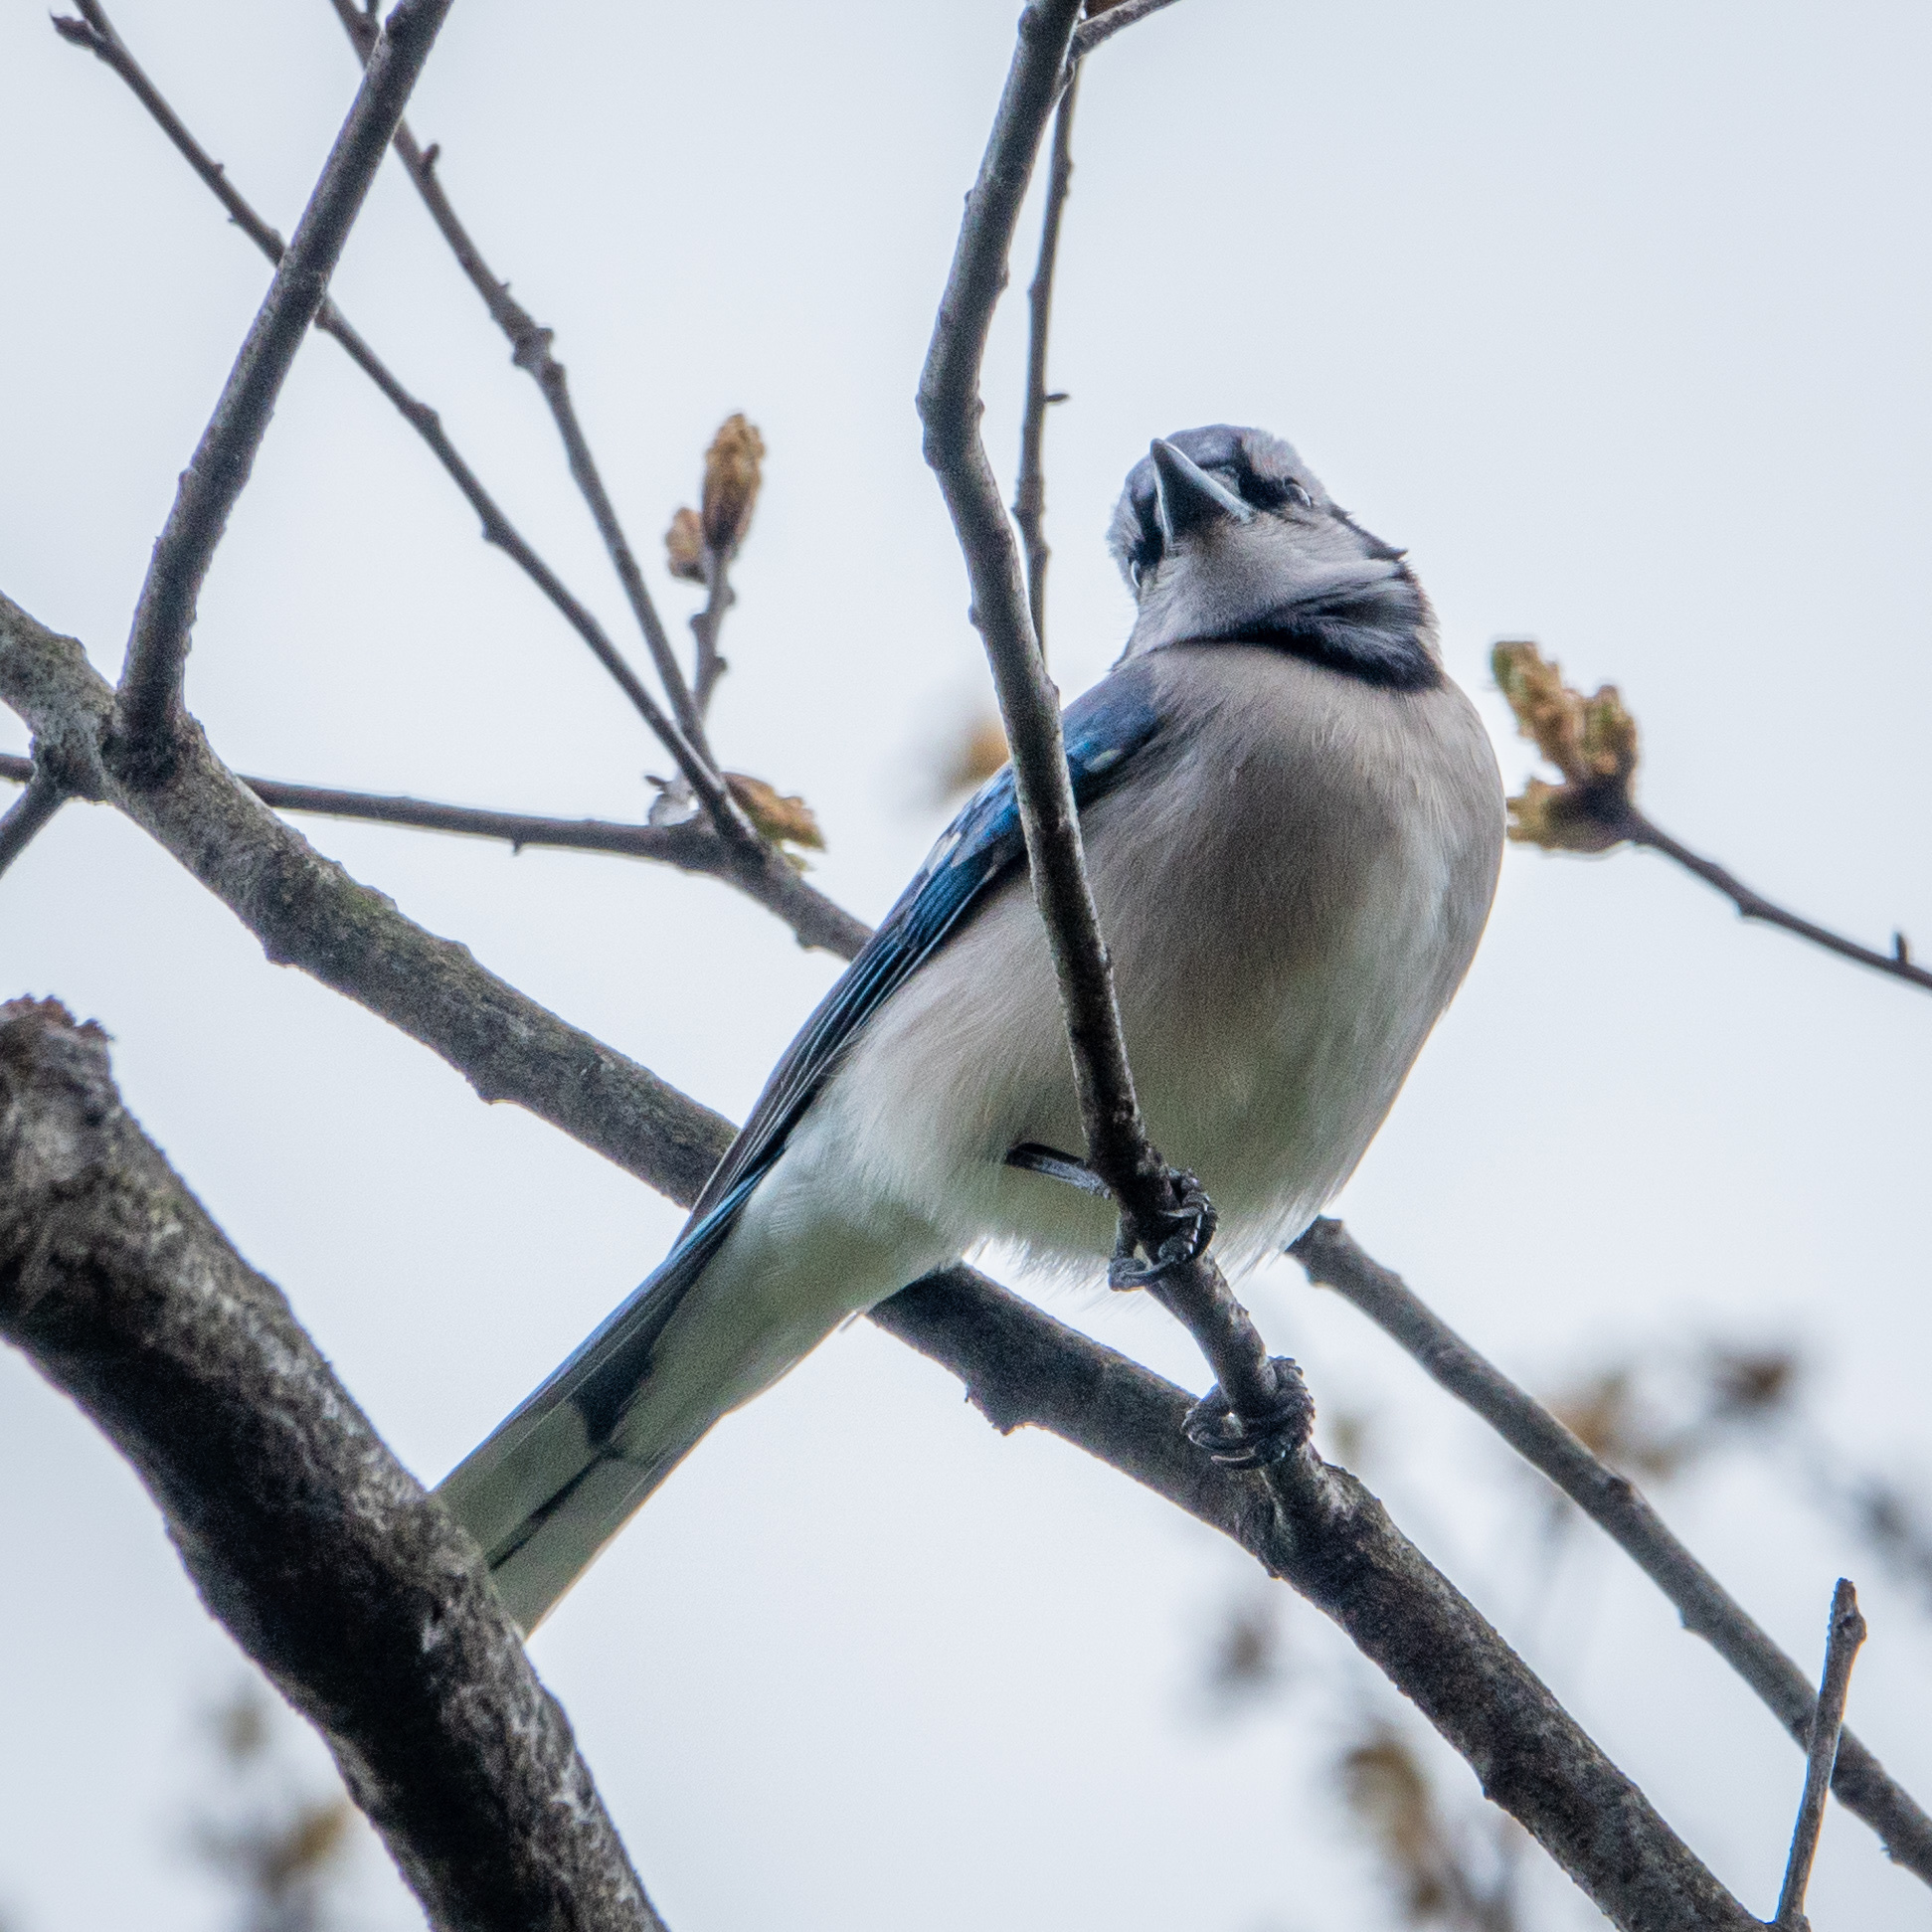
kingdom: Animalia
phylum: Chordata
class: Aves
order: Passeriformes
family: Corvidae
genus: Cyanocitta
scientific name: Cyanocitta cristata
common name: Blue jay
